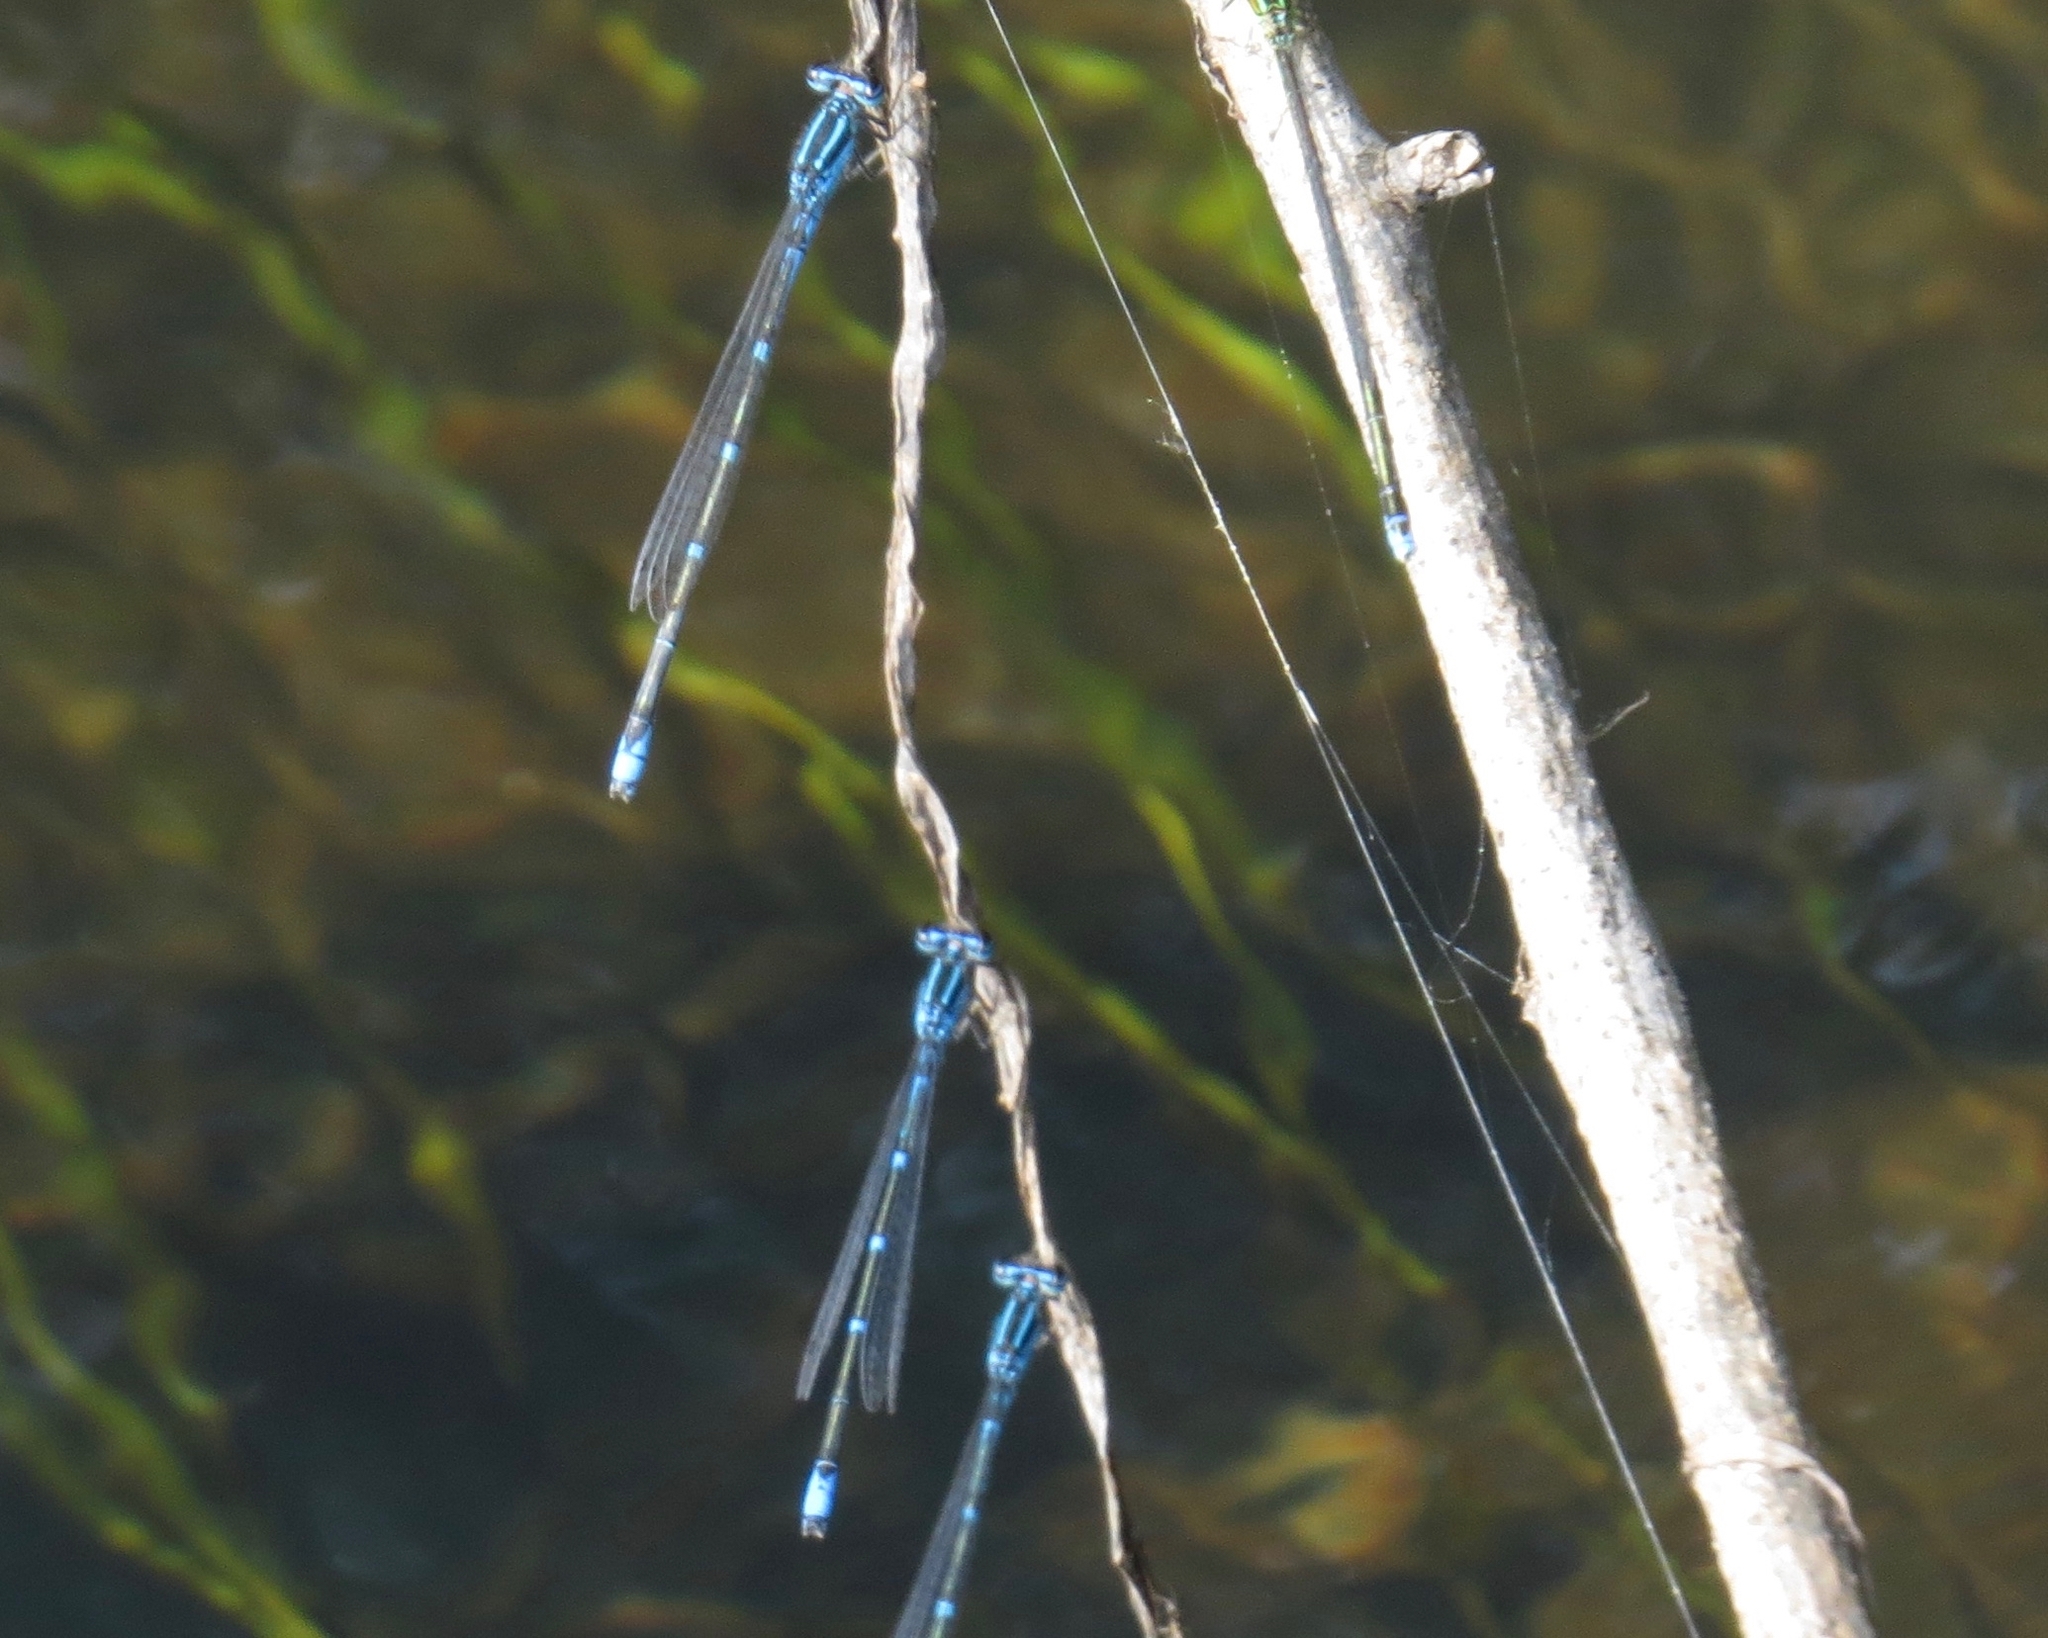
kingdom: Animalia
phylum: Arthropoda
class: Insecta
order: Odonata
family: Coenagrionidae
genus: Enallagma
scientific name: Enallagma exsulans
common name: Stream bluet
